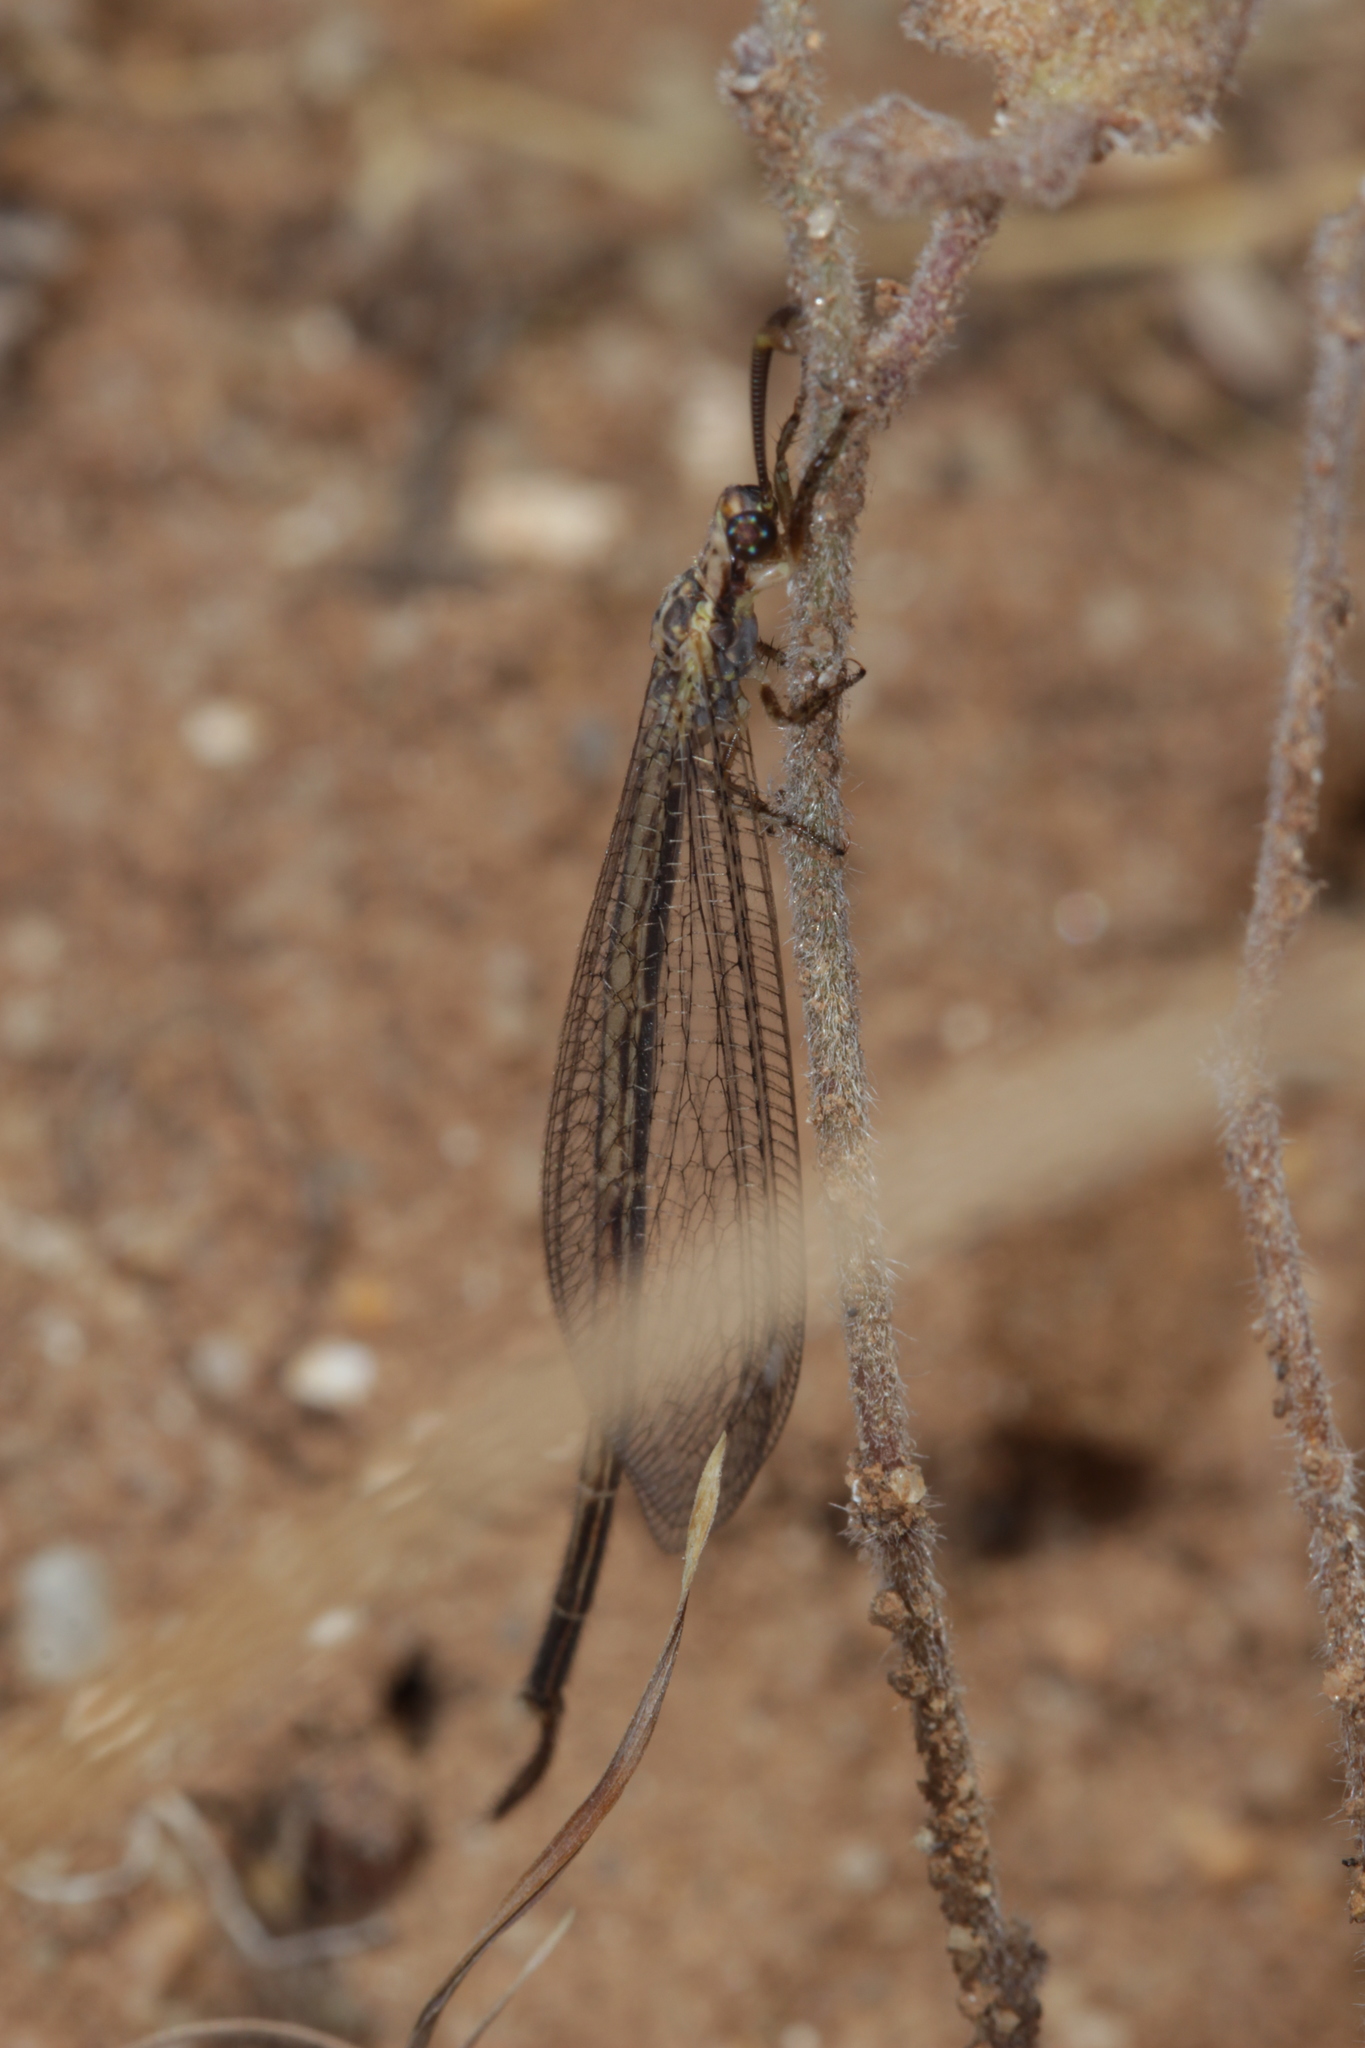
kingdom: Animalia
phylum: Arthropoda
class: Insecta
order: Neuroptera
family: Myrmeleontidae
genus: Macronemurus
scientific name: Macronemurus appendiculatus
